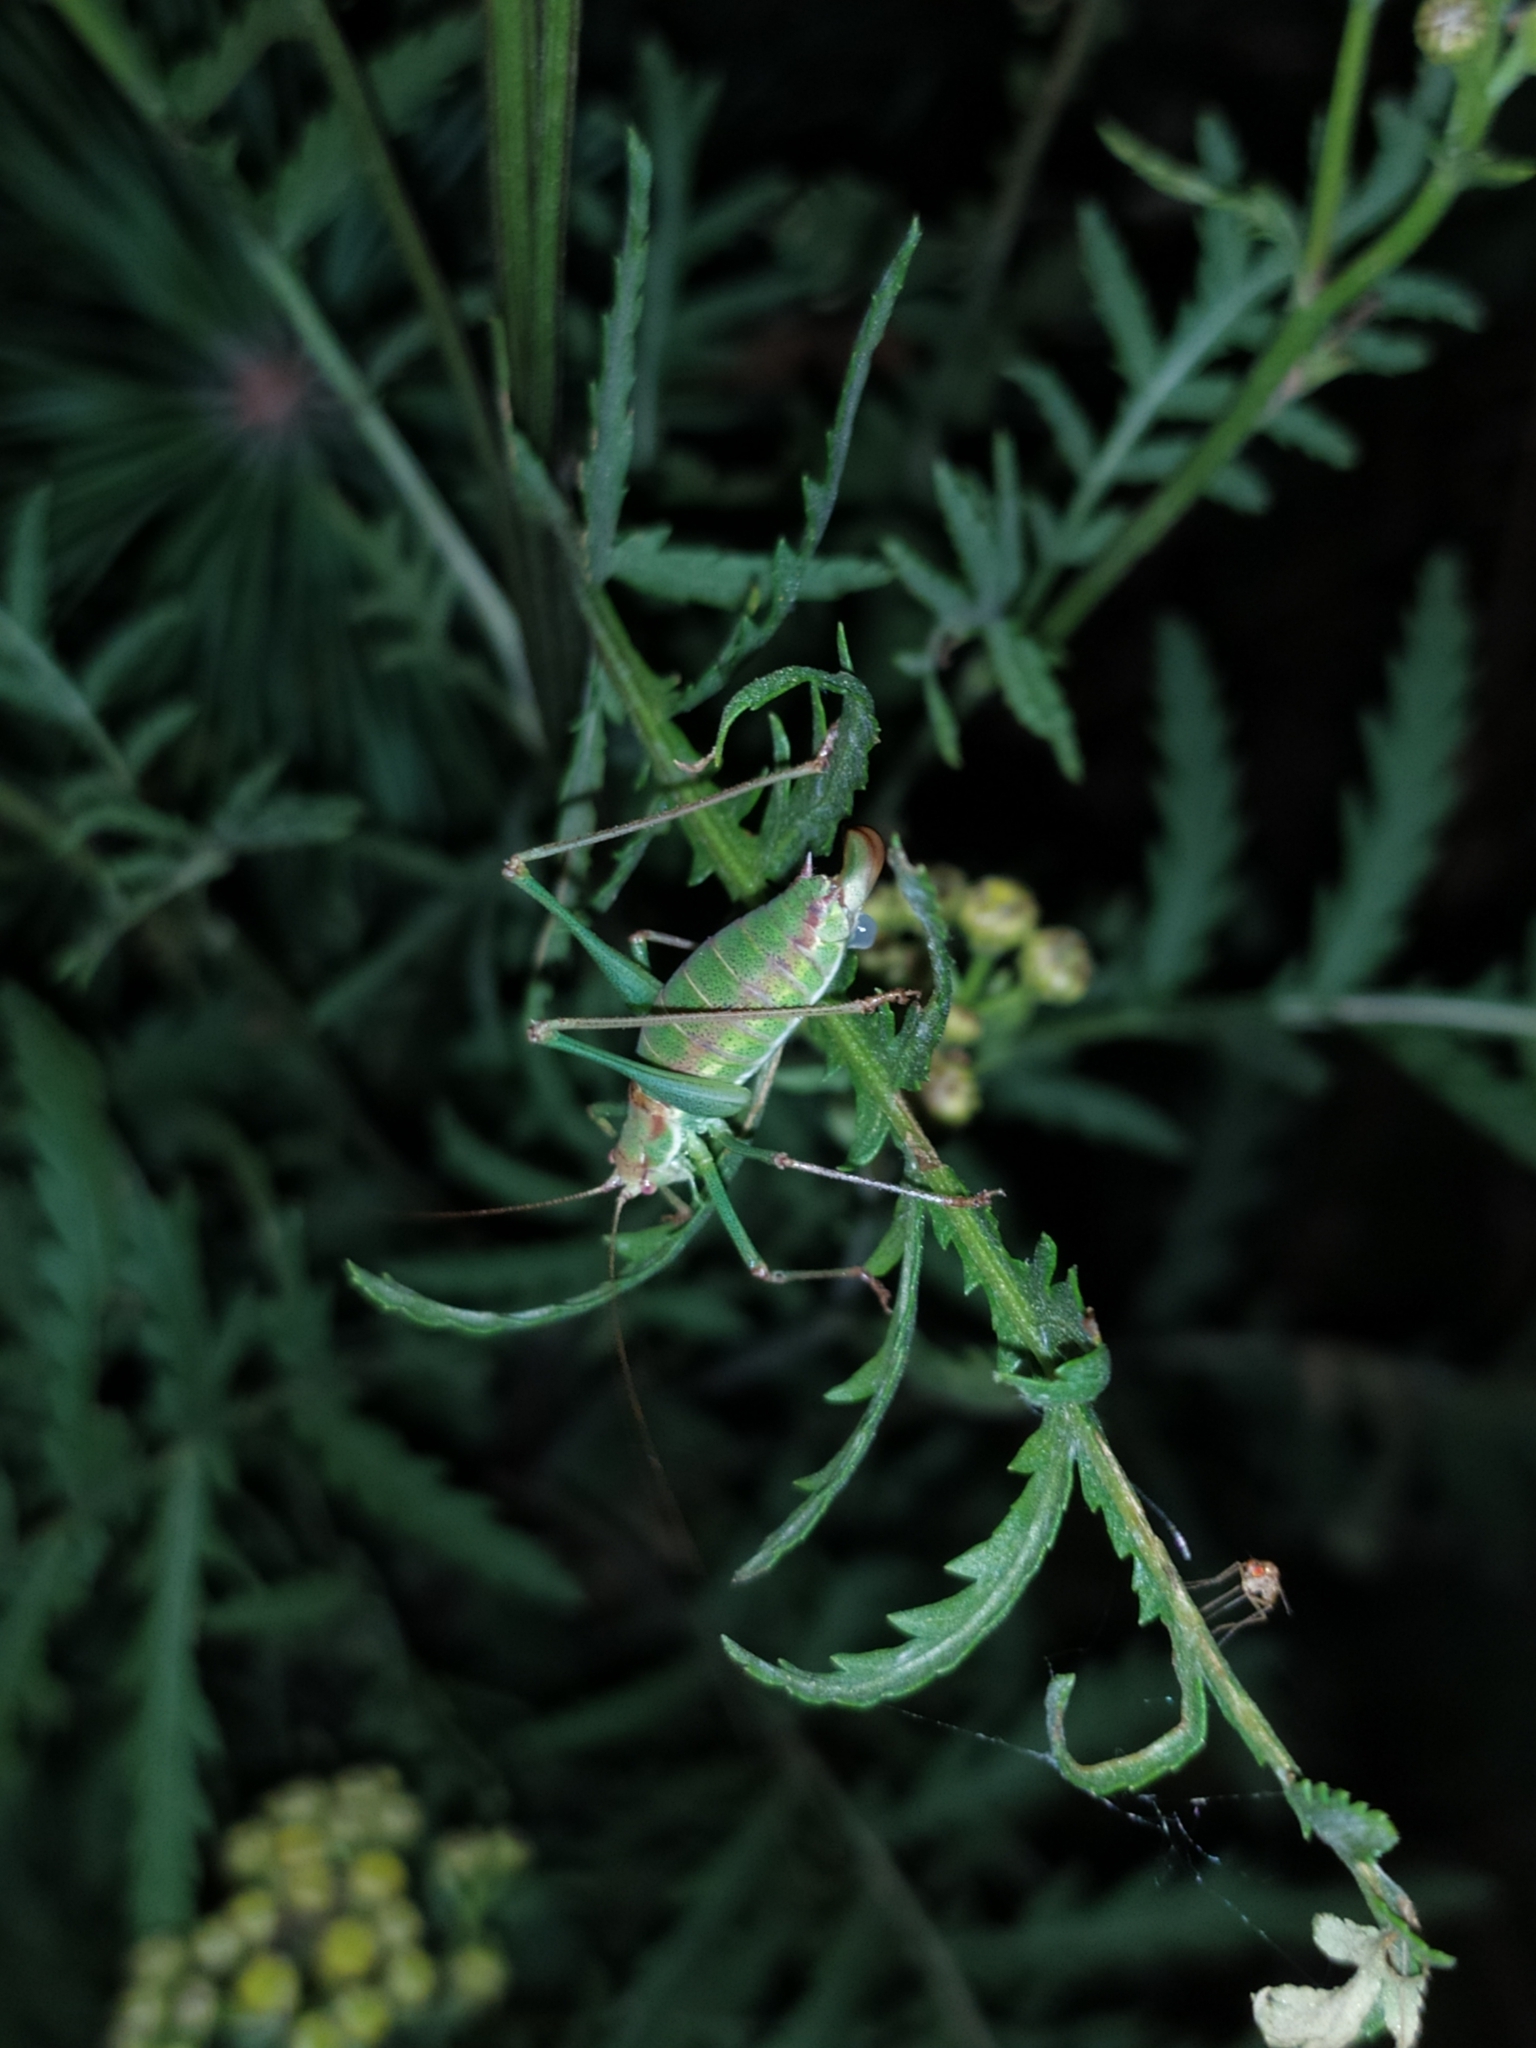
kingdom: Animalia
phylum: Arthropoda
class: Insecta
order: Orthoptera
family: Tettigoniidae
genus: Leptophyes
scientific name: Leptophyes albovittata
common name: Striped bush-cricket
